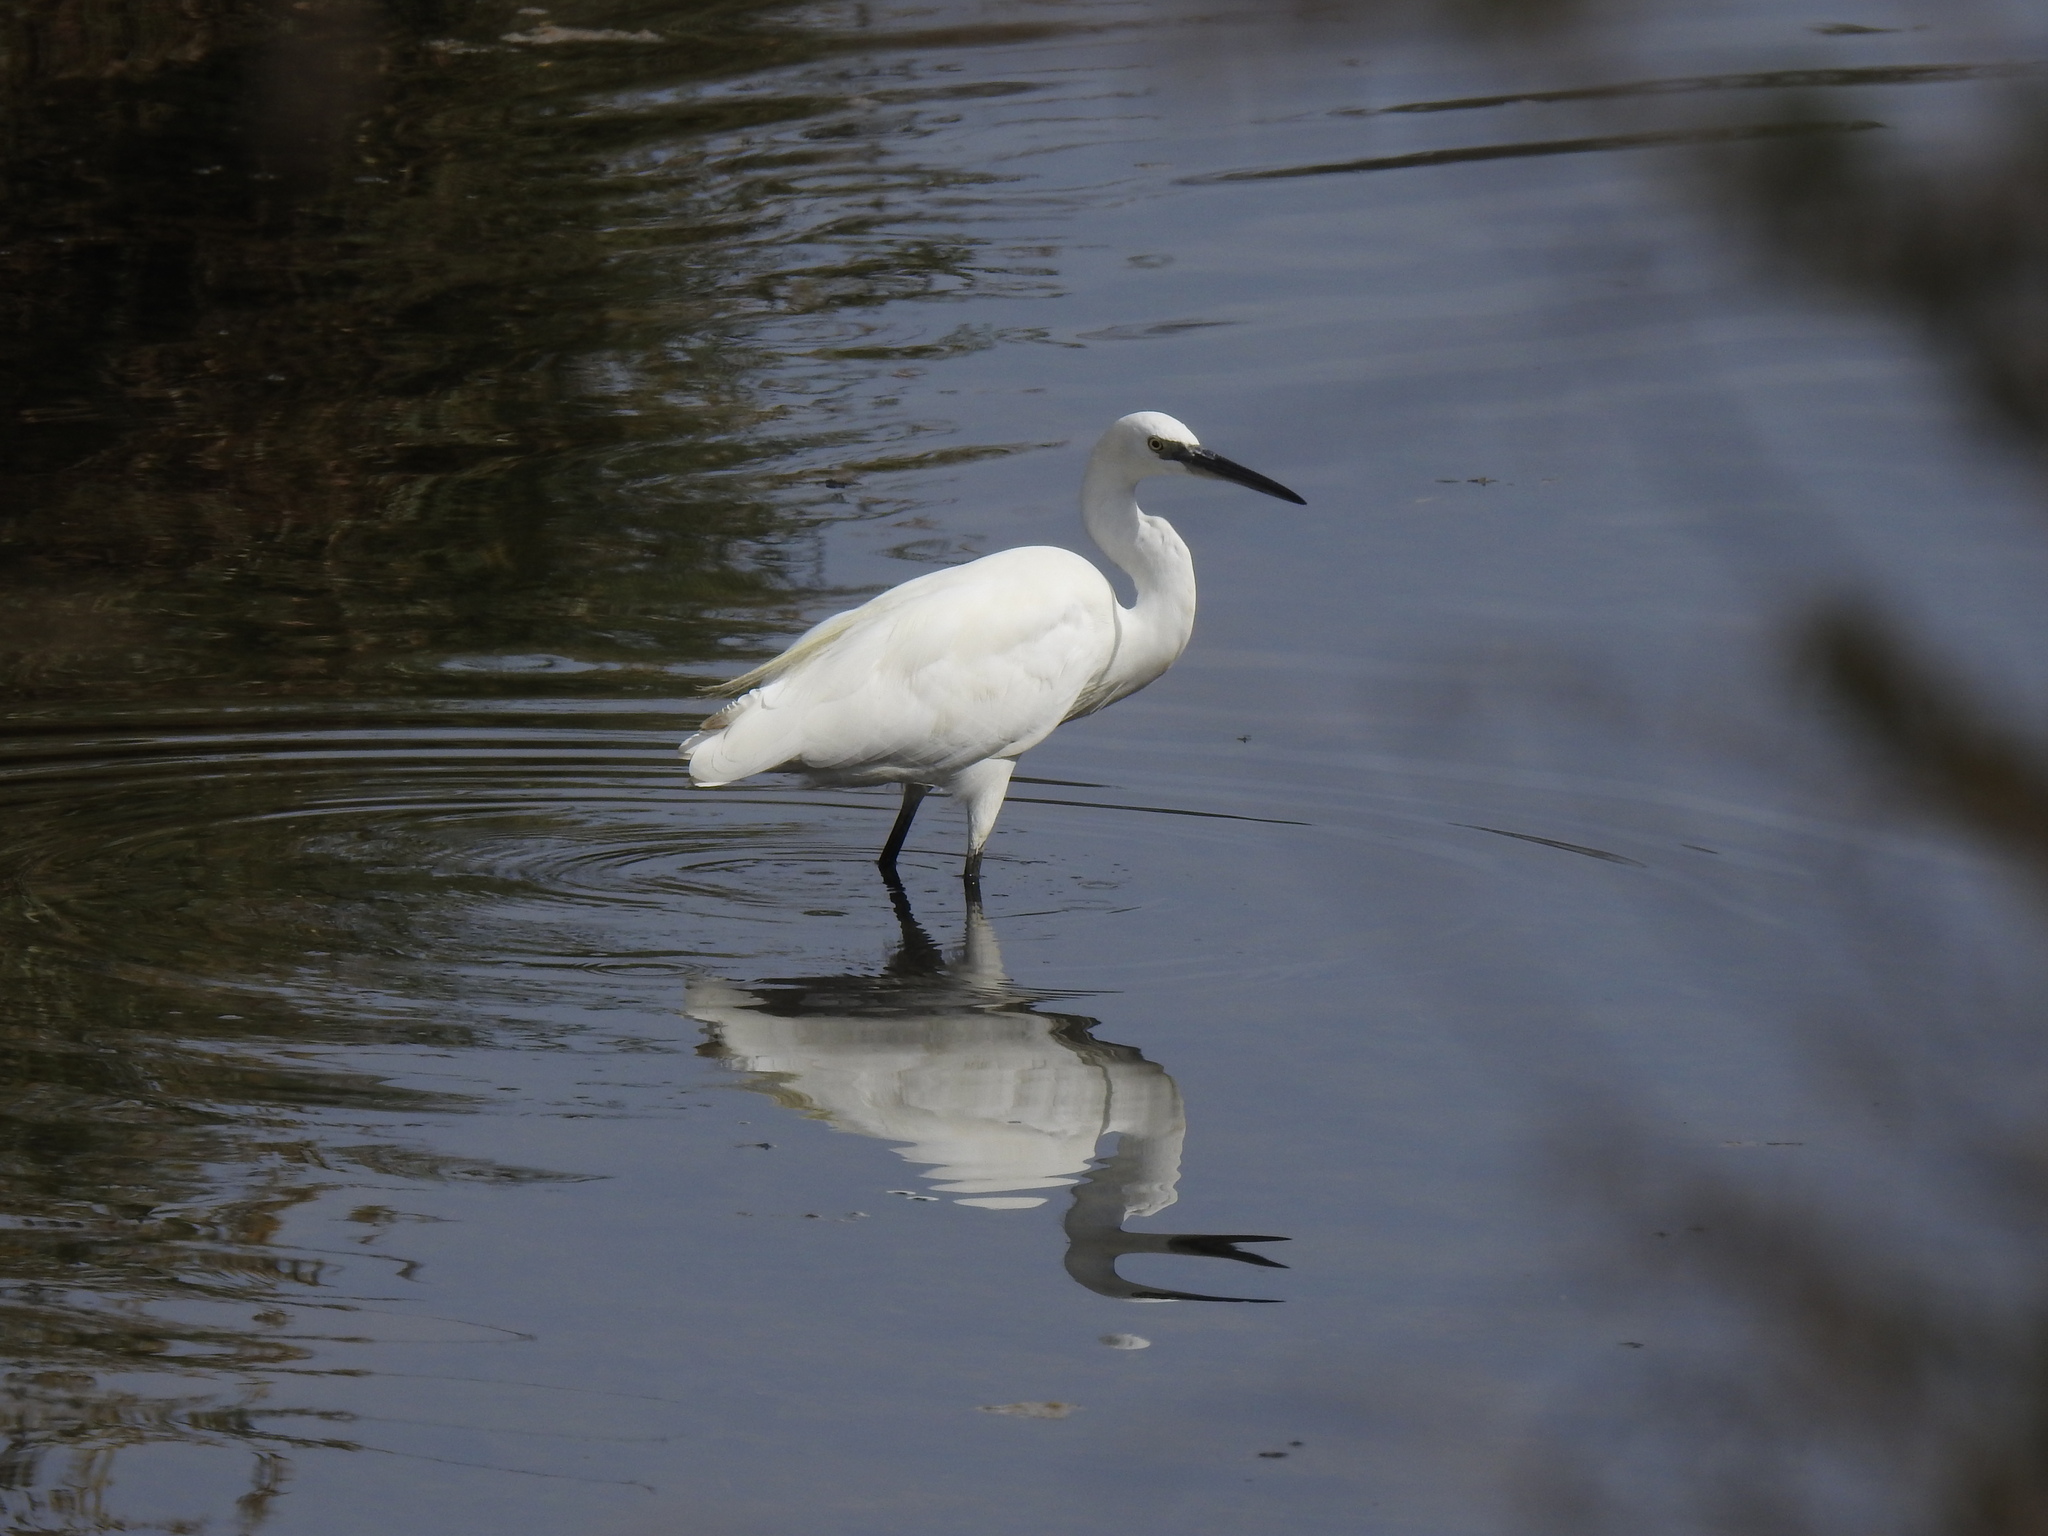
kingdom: Animalia
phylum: Chordata
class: Aves
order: Pelecaniformes
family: Ardeidae
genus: Egretta
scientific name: Egretta garzetta
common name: Little egret
